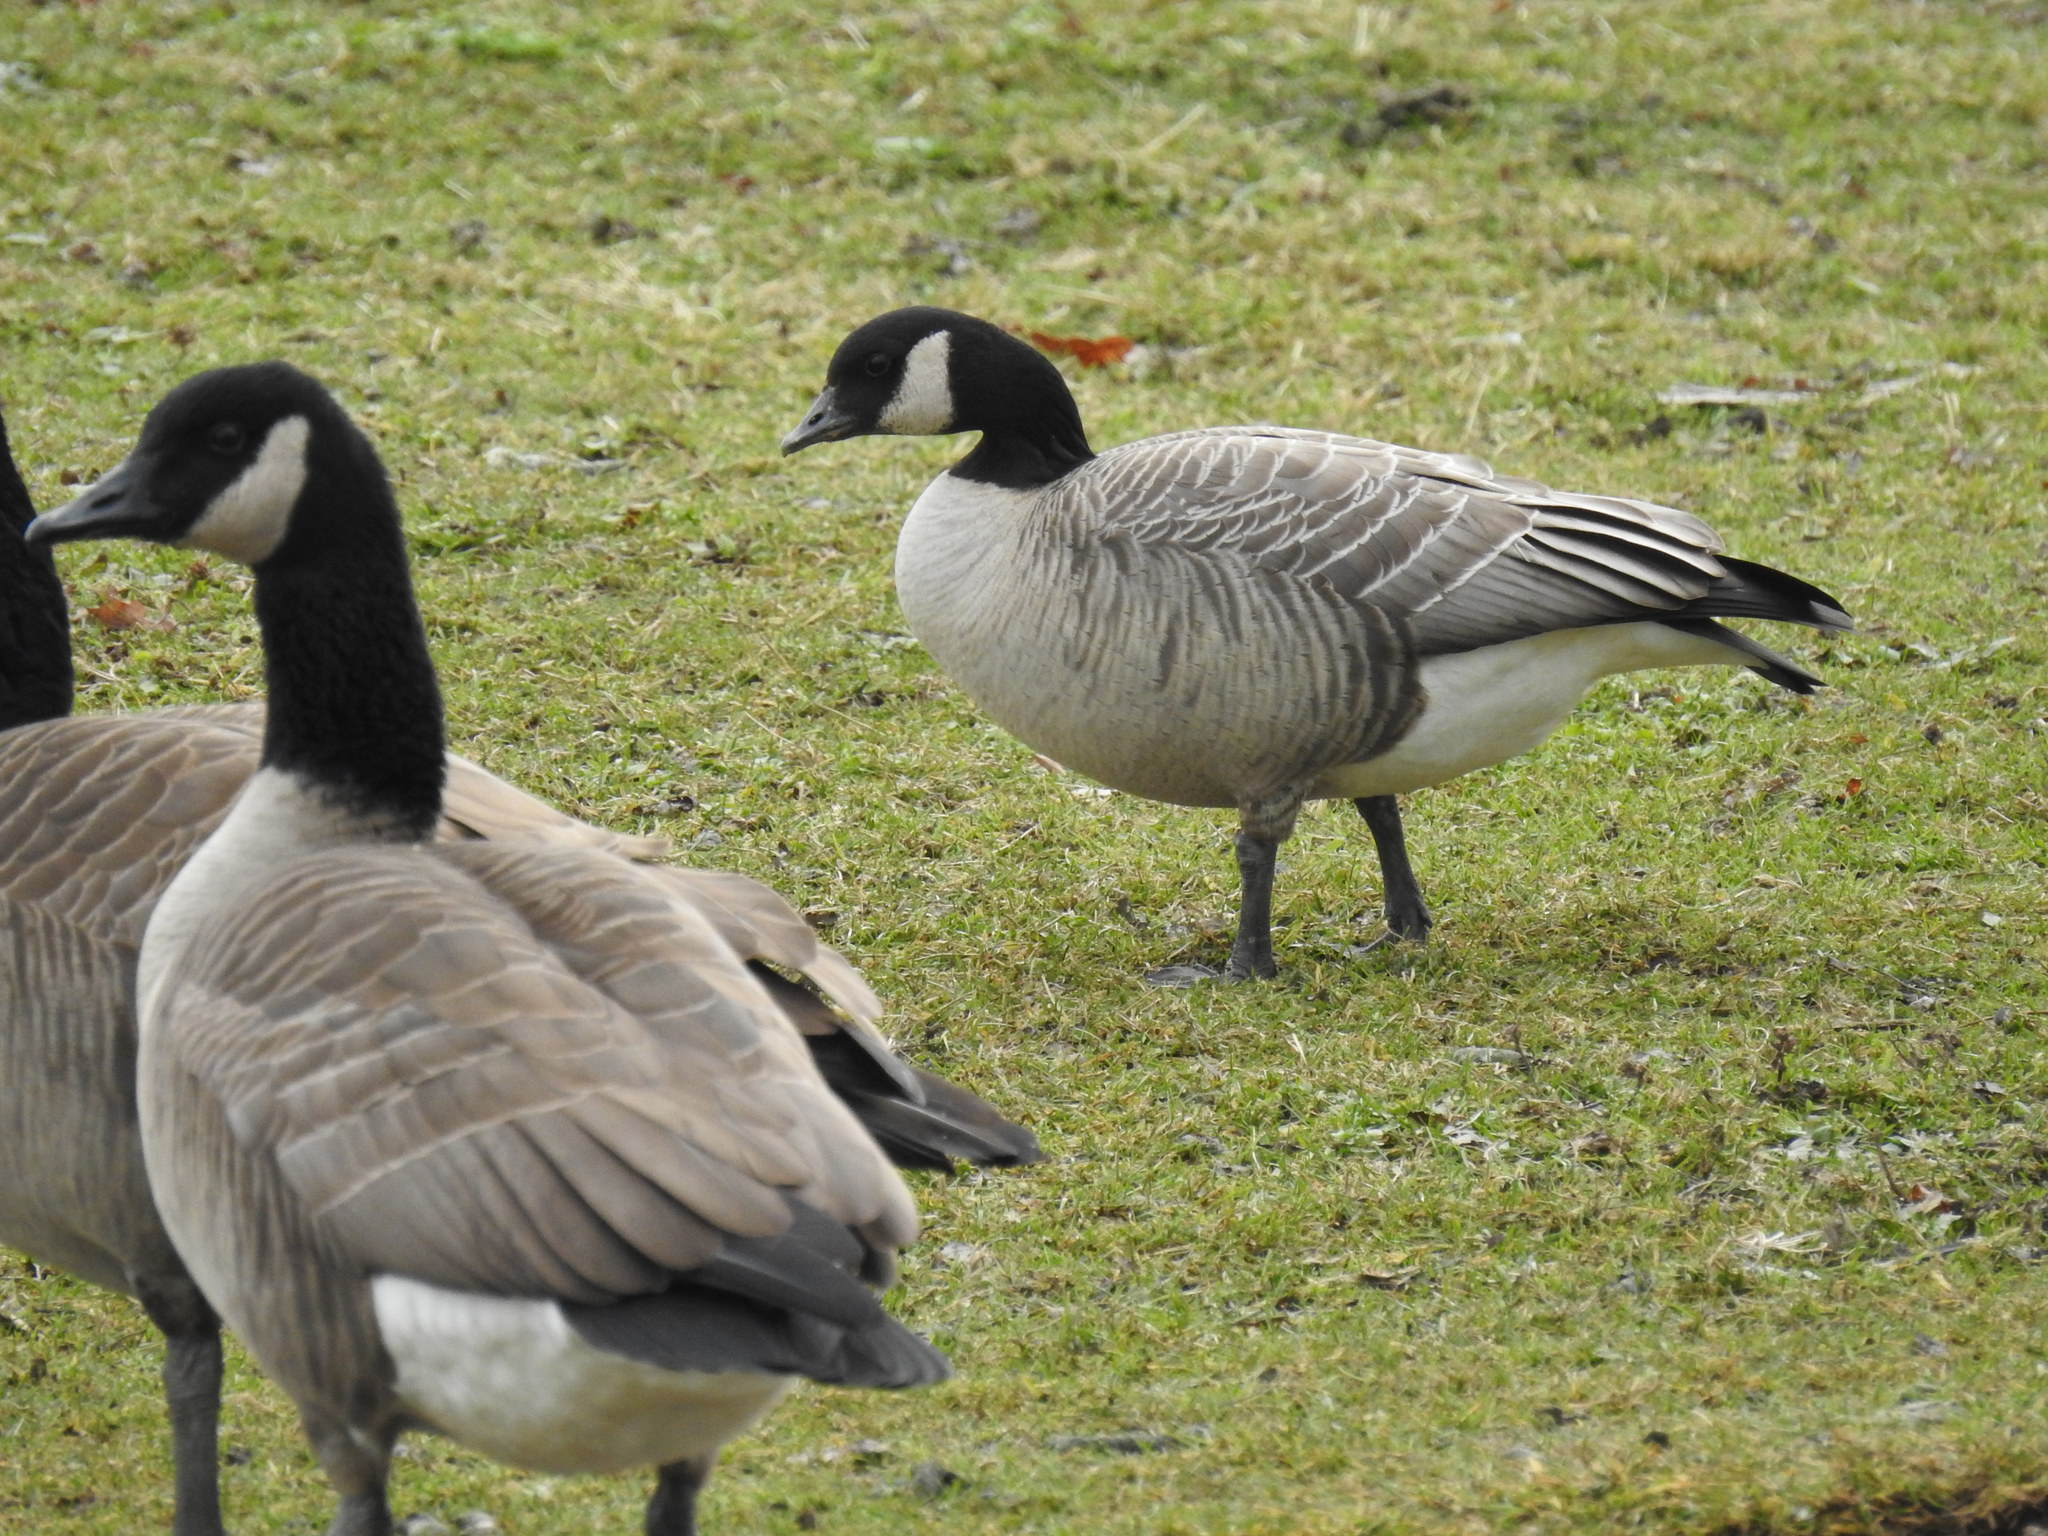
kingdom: Animalia
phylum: Chordata
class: Aves
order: Anseriformes
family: Anatidae
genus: Branta
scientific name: Branta hutchinsii
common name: Cackling goose
